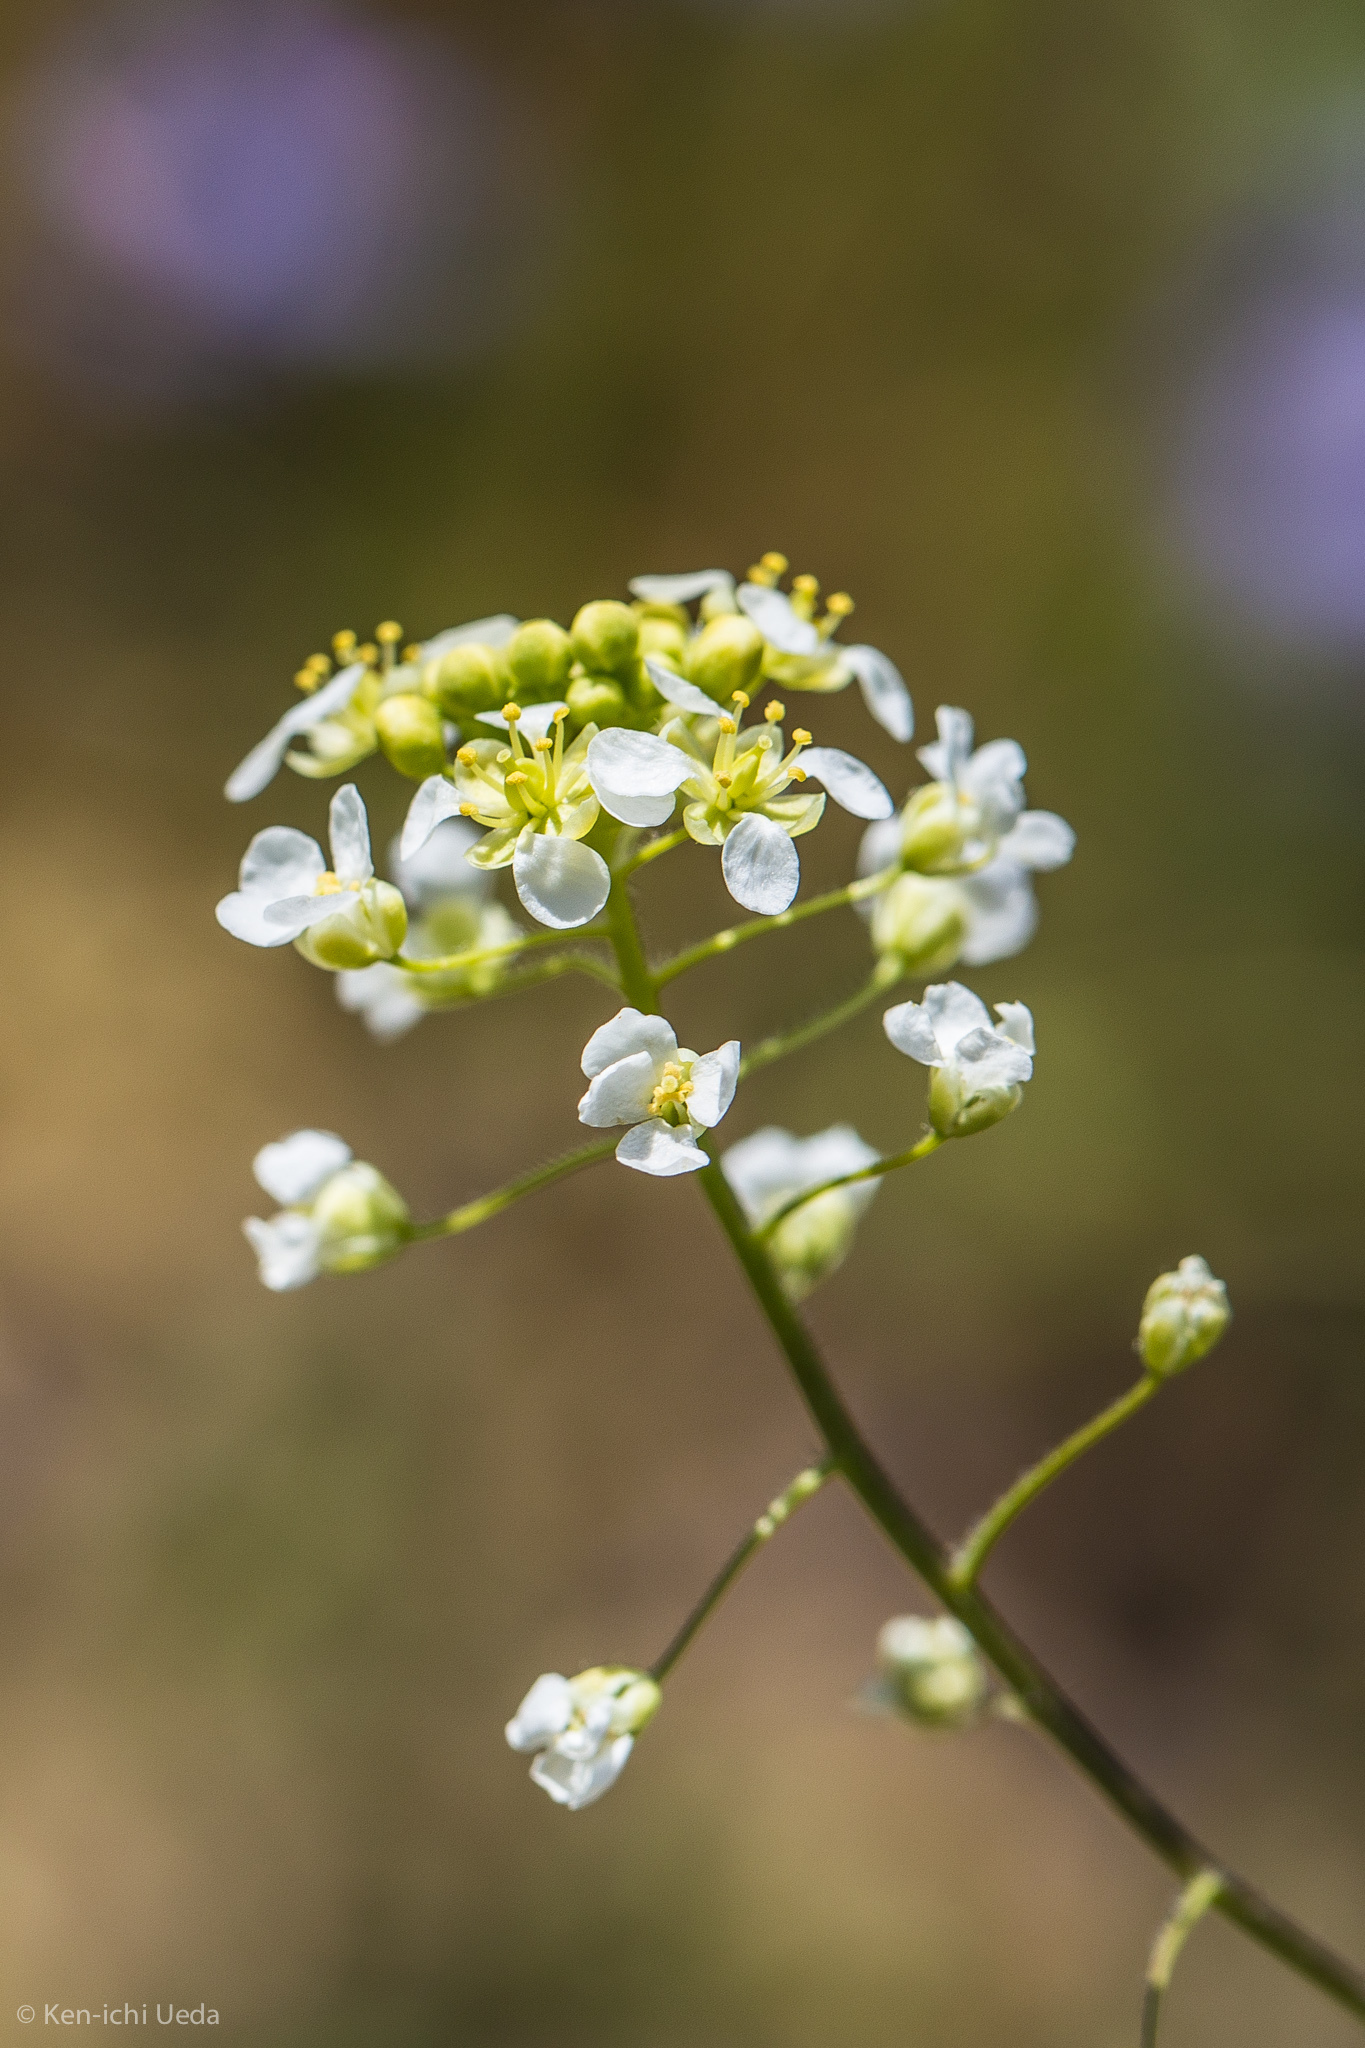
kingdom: Plantae
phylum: Tracheophyta
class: Magnoliopsida
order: Brassicales
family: Brassicaceae
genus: Lepidium
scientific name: Lepidium jaredii
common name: Jared's peppergrass
